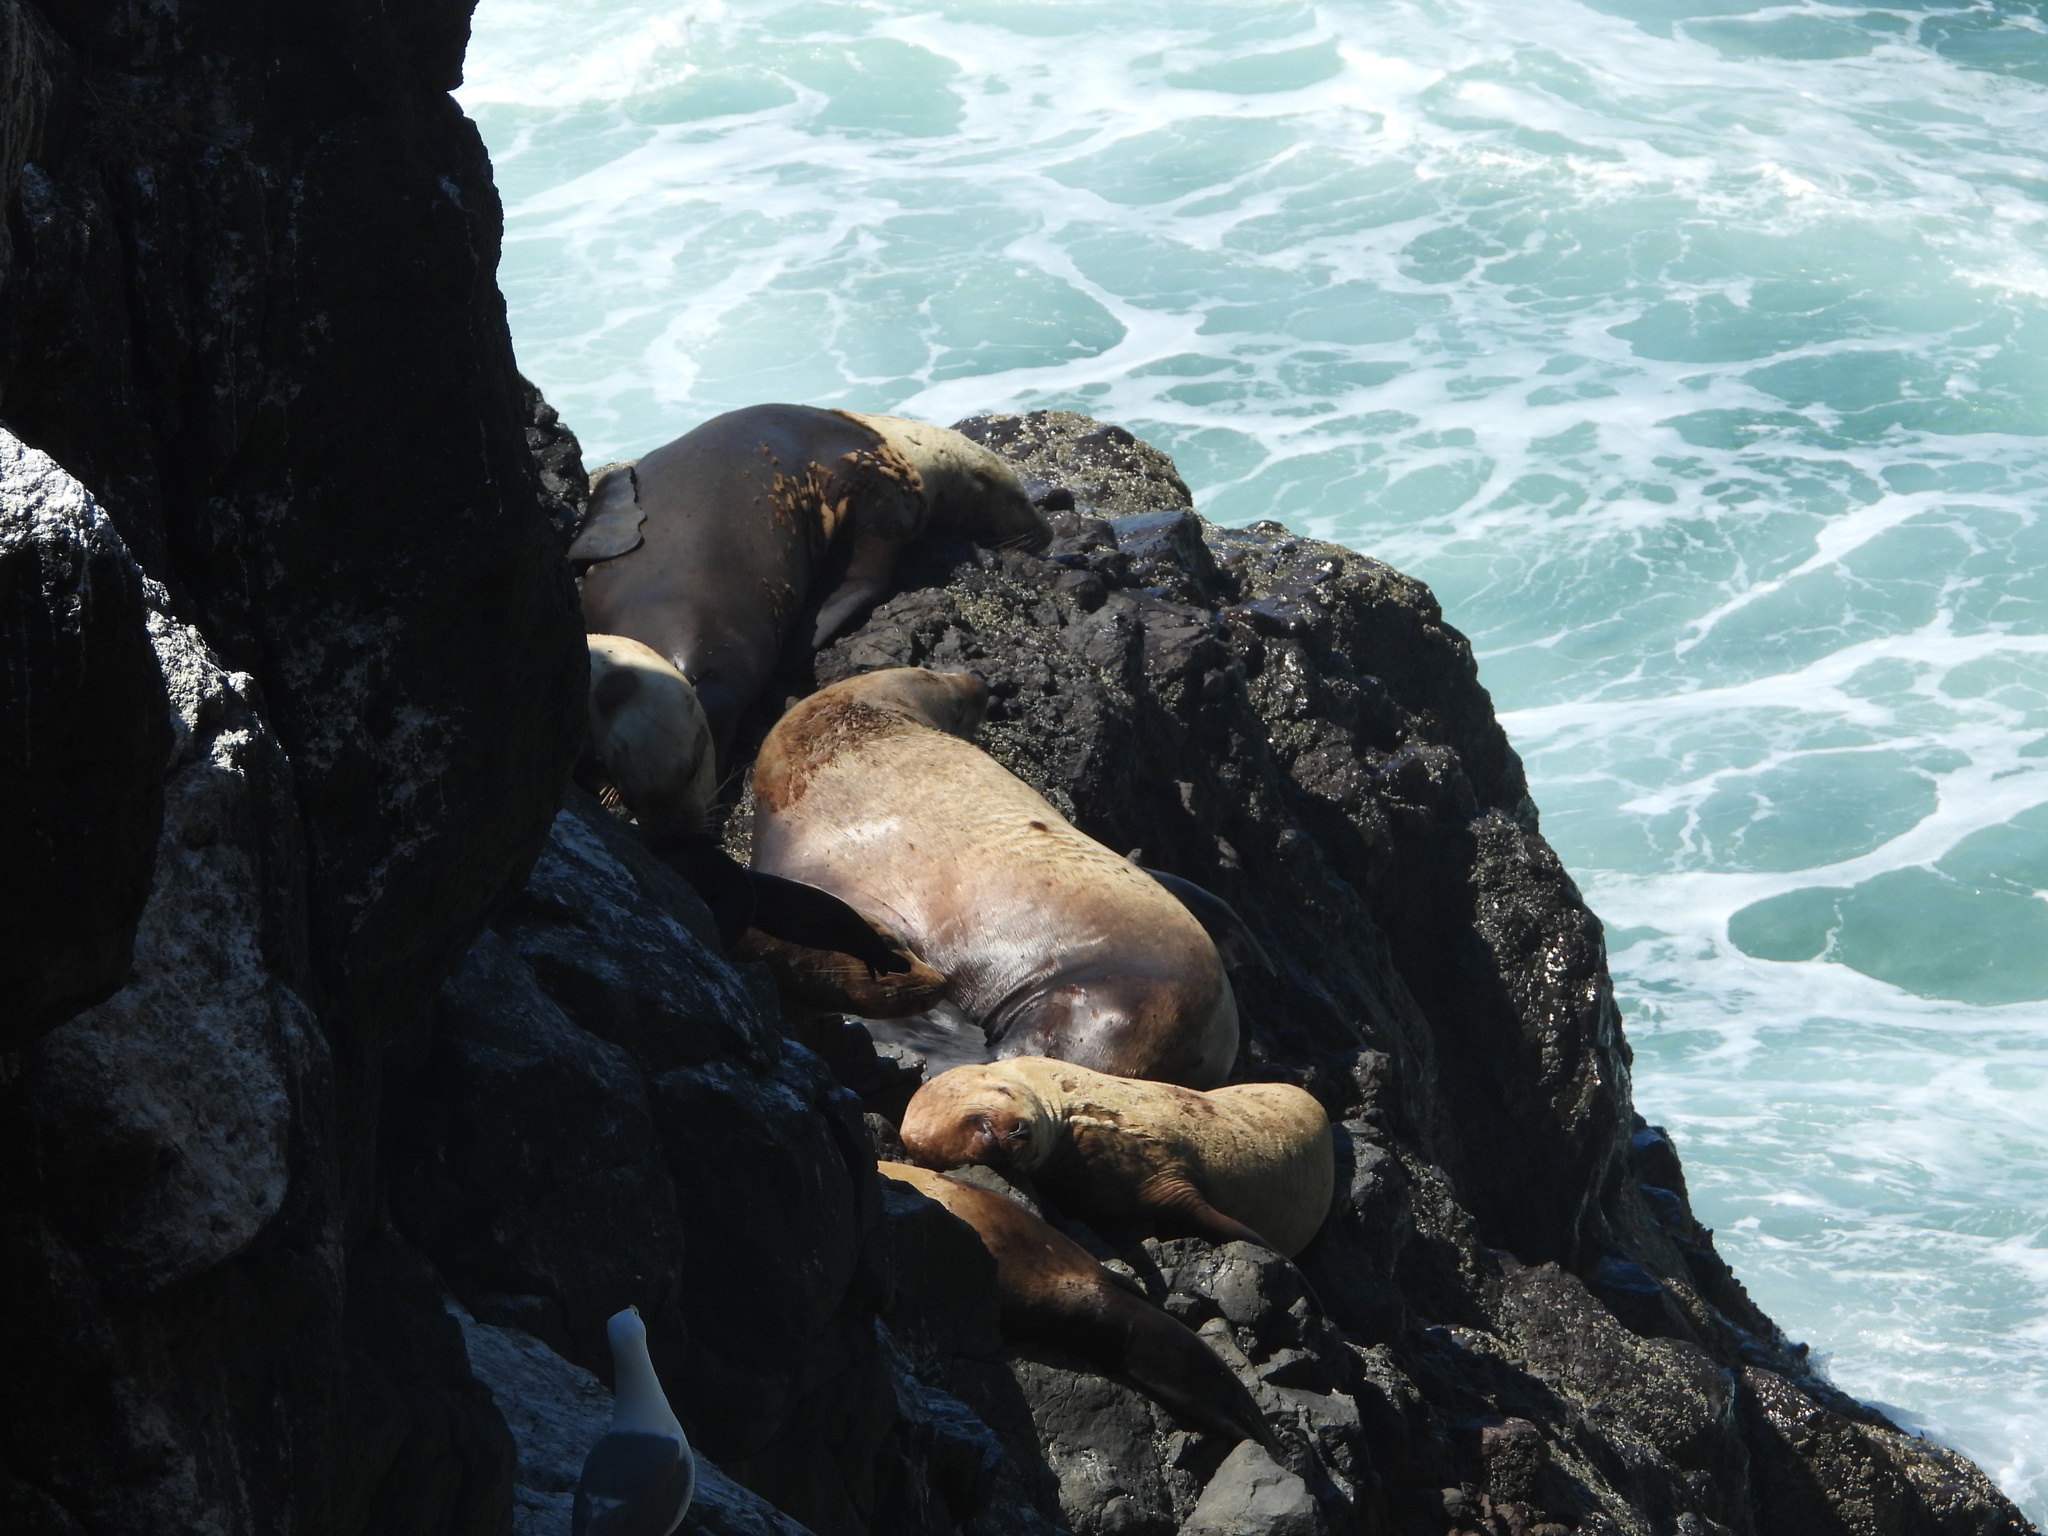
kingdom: Animalia
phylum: Chordata
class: Mammalia
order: Carnivora
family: Otariidae
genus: Eumetopias
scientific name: Eumetopias jubatus
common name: Steller sea lion
